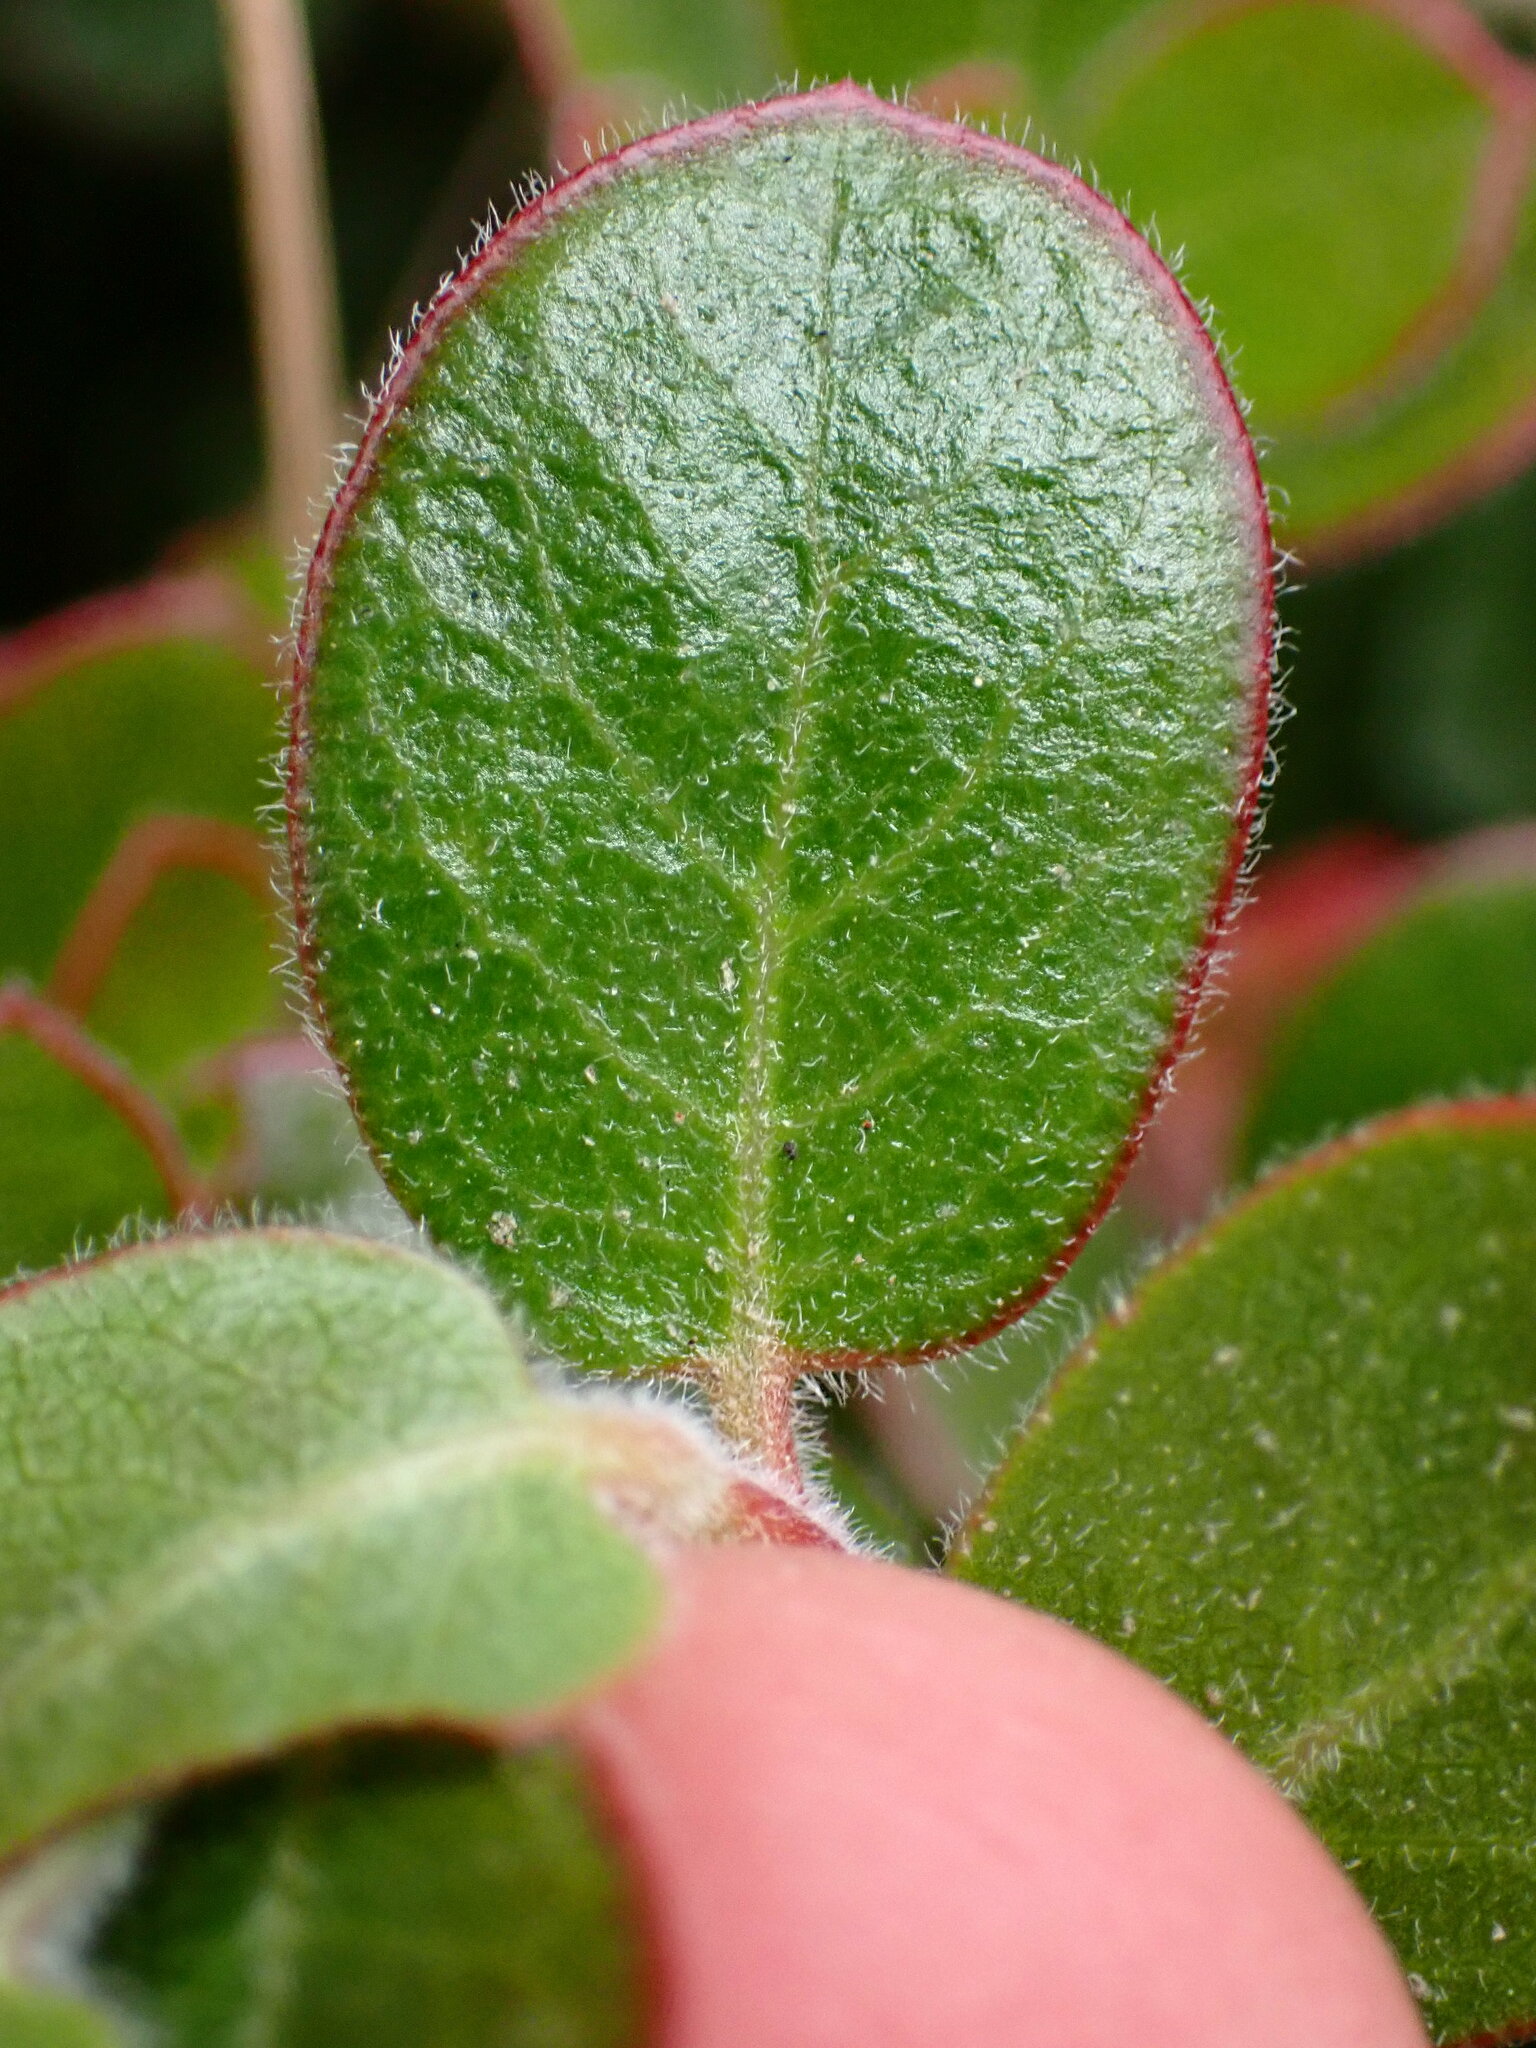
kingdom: Plantae
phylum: Tracheophyta
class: Magnoliopsida
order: Ericales
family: Ericaceae
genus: Arctostaphylos
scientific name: Arctostaphylos edmundsii
